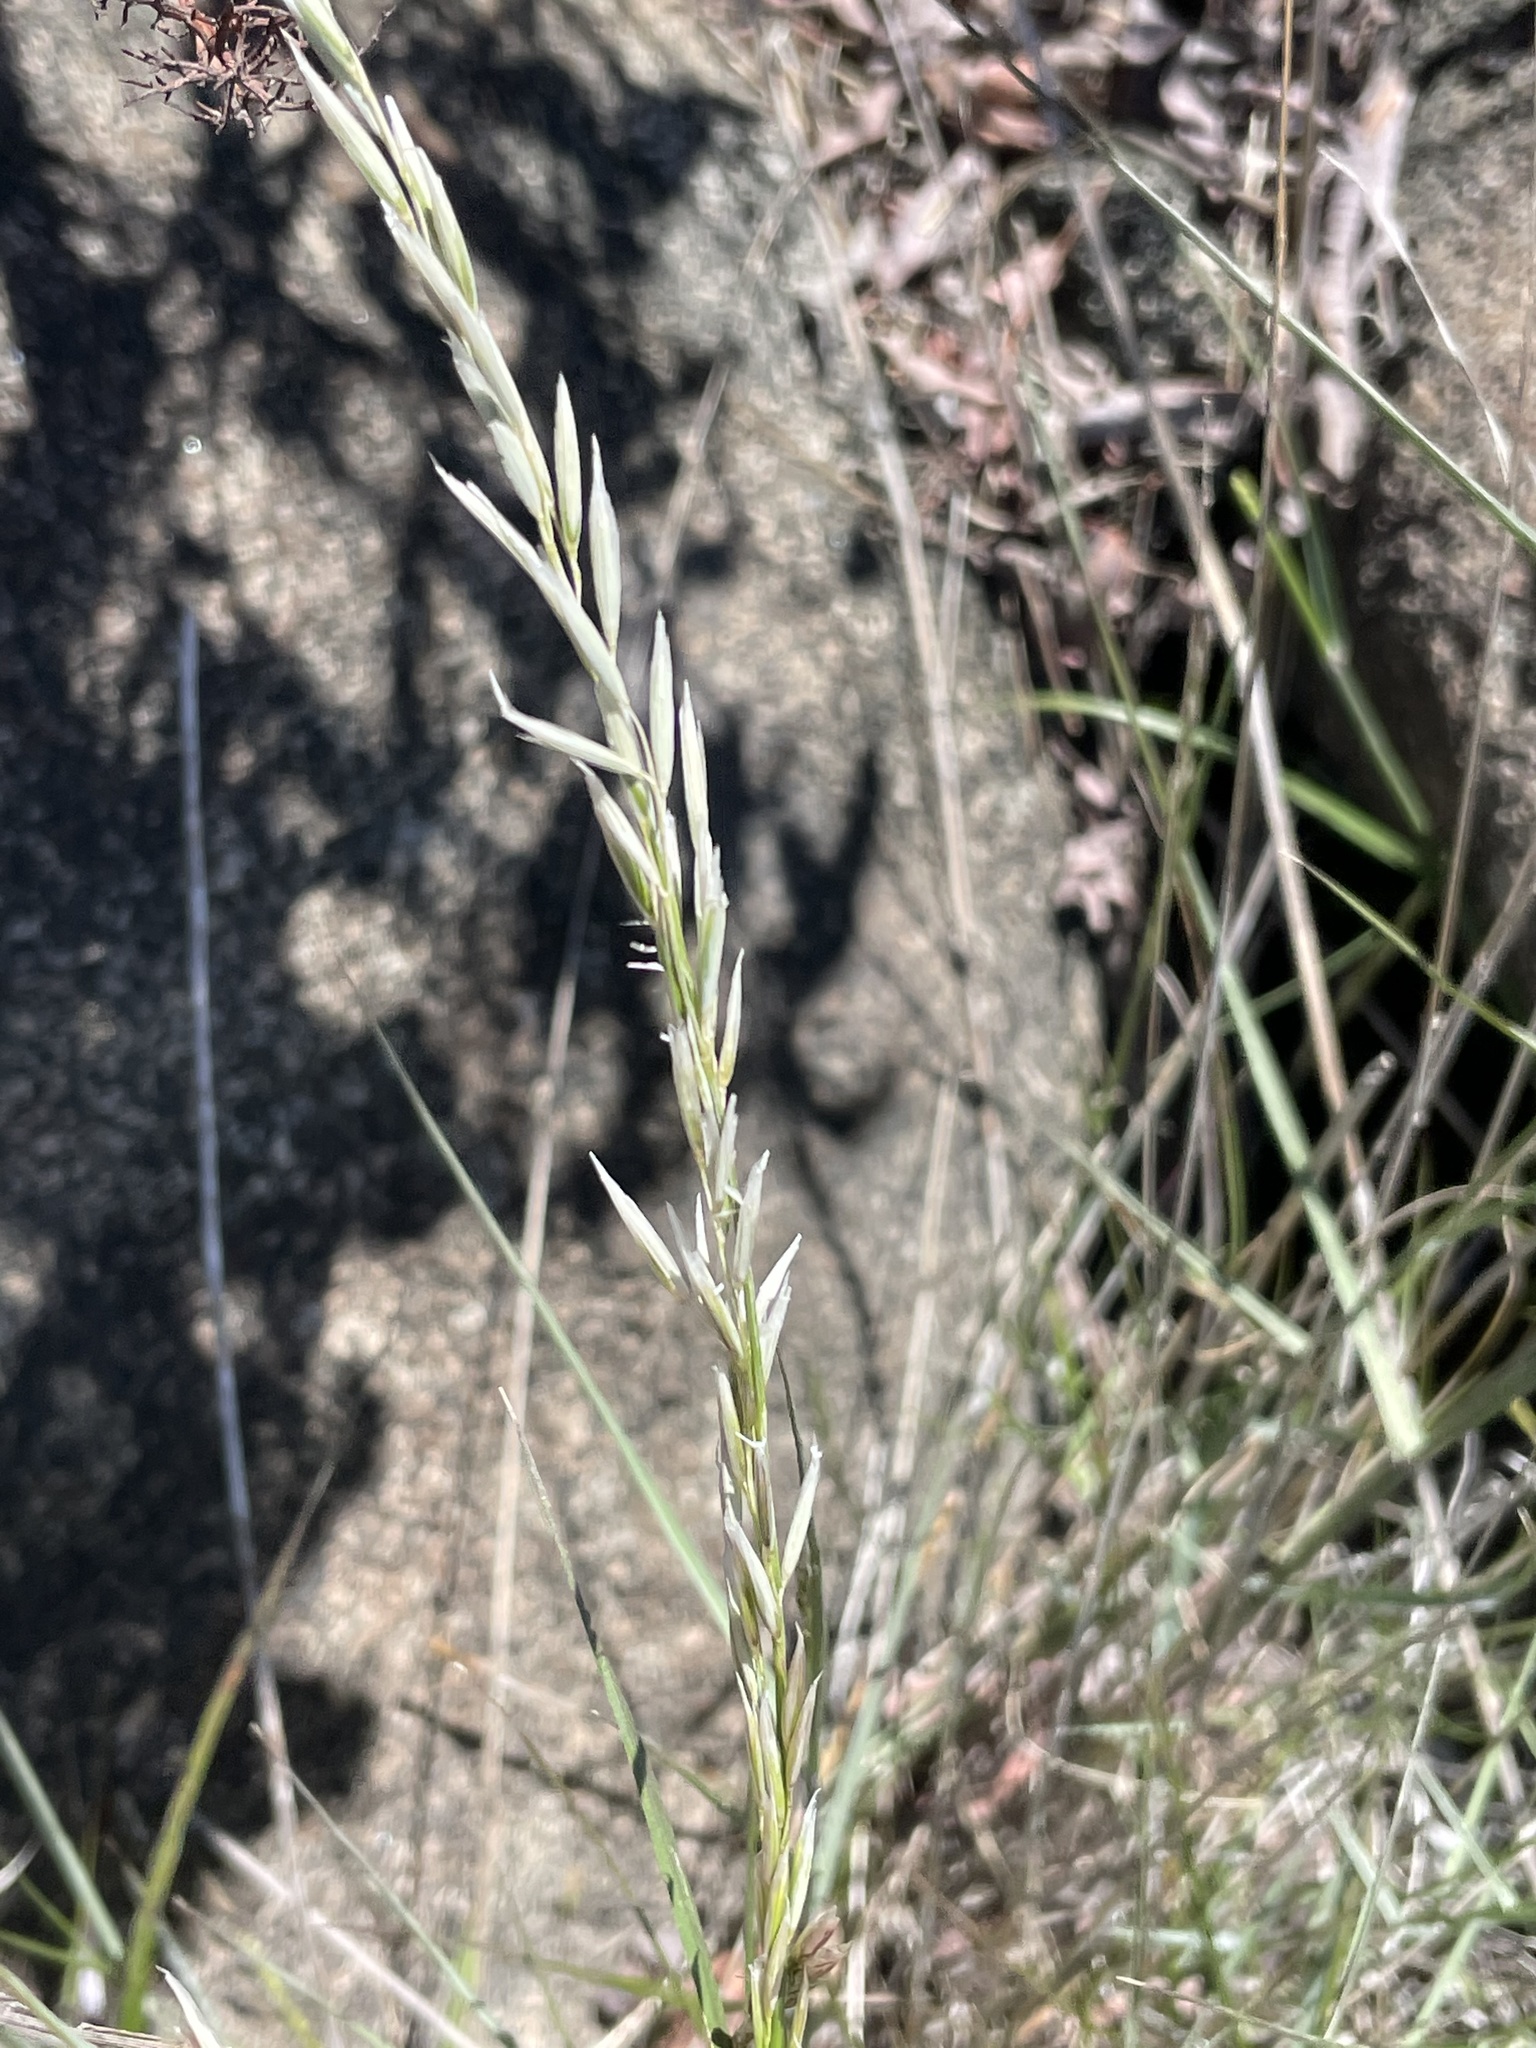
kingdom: Plantae
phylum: Tracheophyta
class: Liliopsida
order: Poales
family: Poaceae
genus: Melica
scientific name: Melica frutescens
